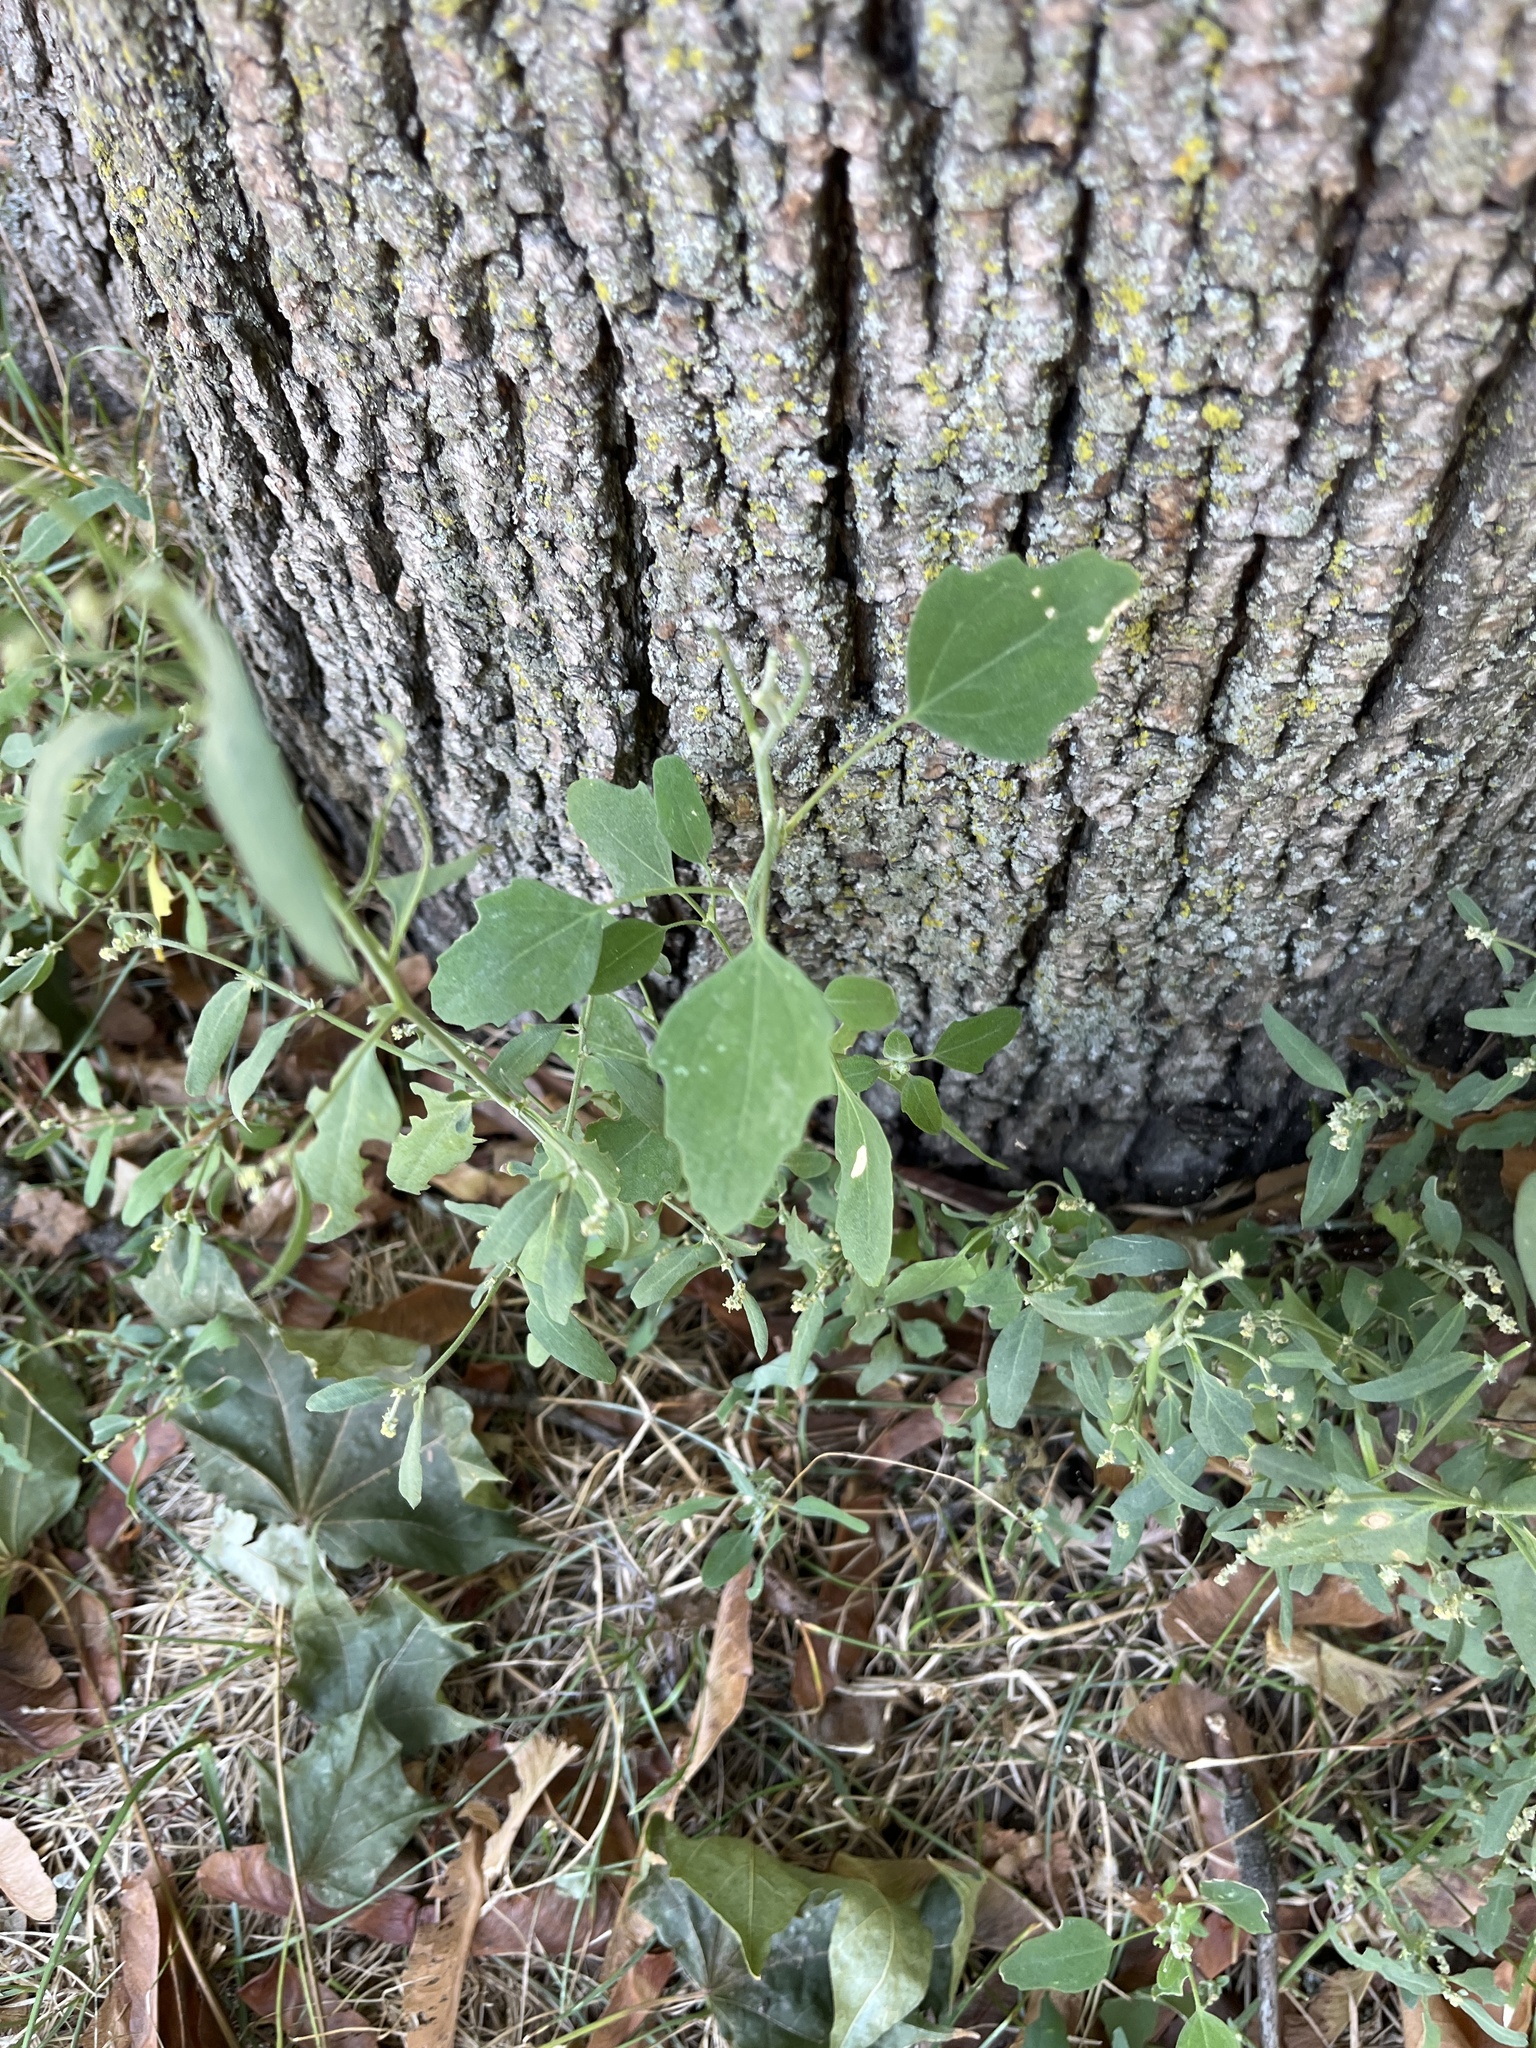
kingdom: Plantae
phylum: Tracheophyta
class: Magnoliopsida
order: Caryophyllales
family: Amaranthaceae
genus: Chenopodium
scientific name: Chenopodium album
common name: Fat-hen
